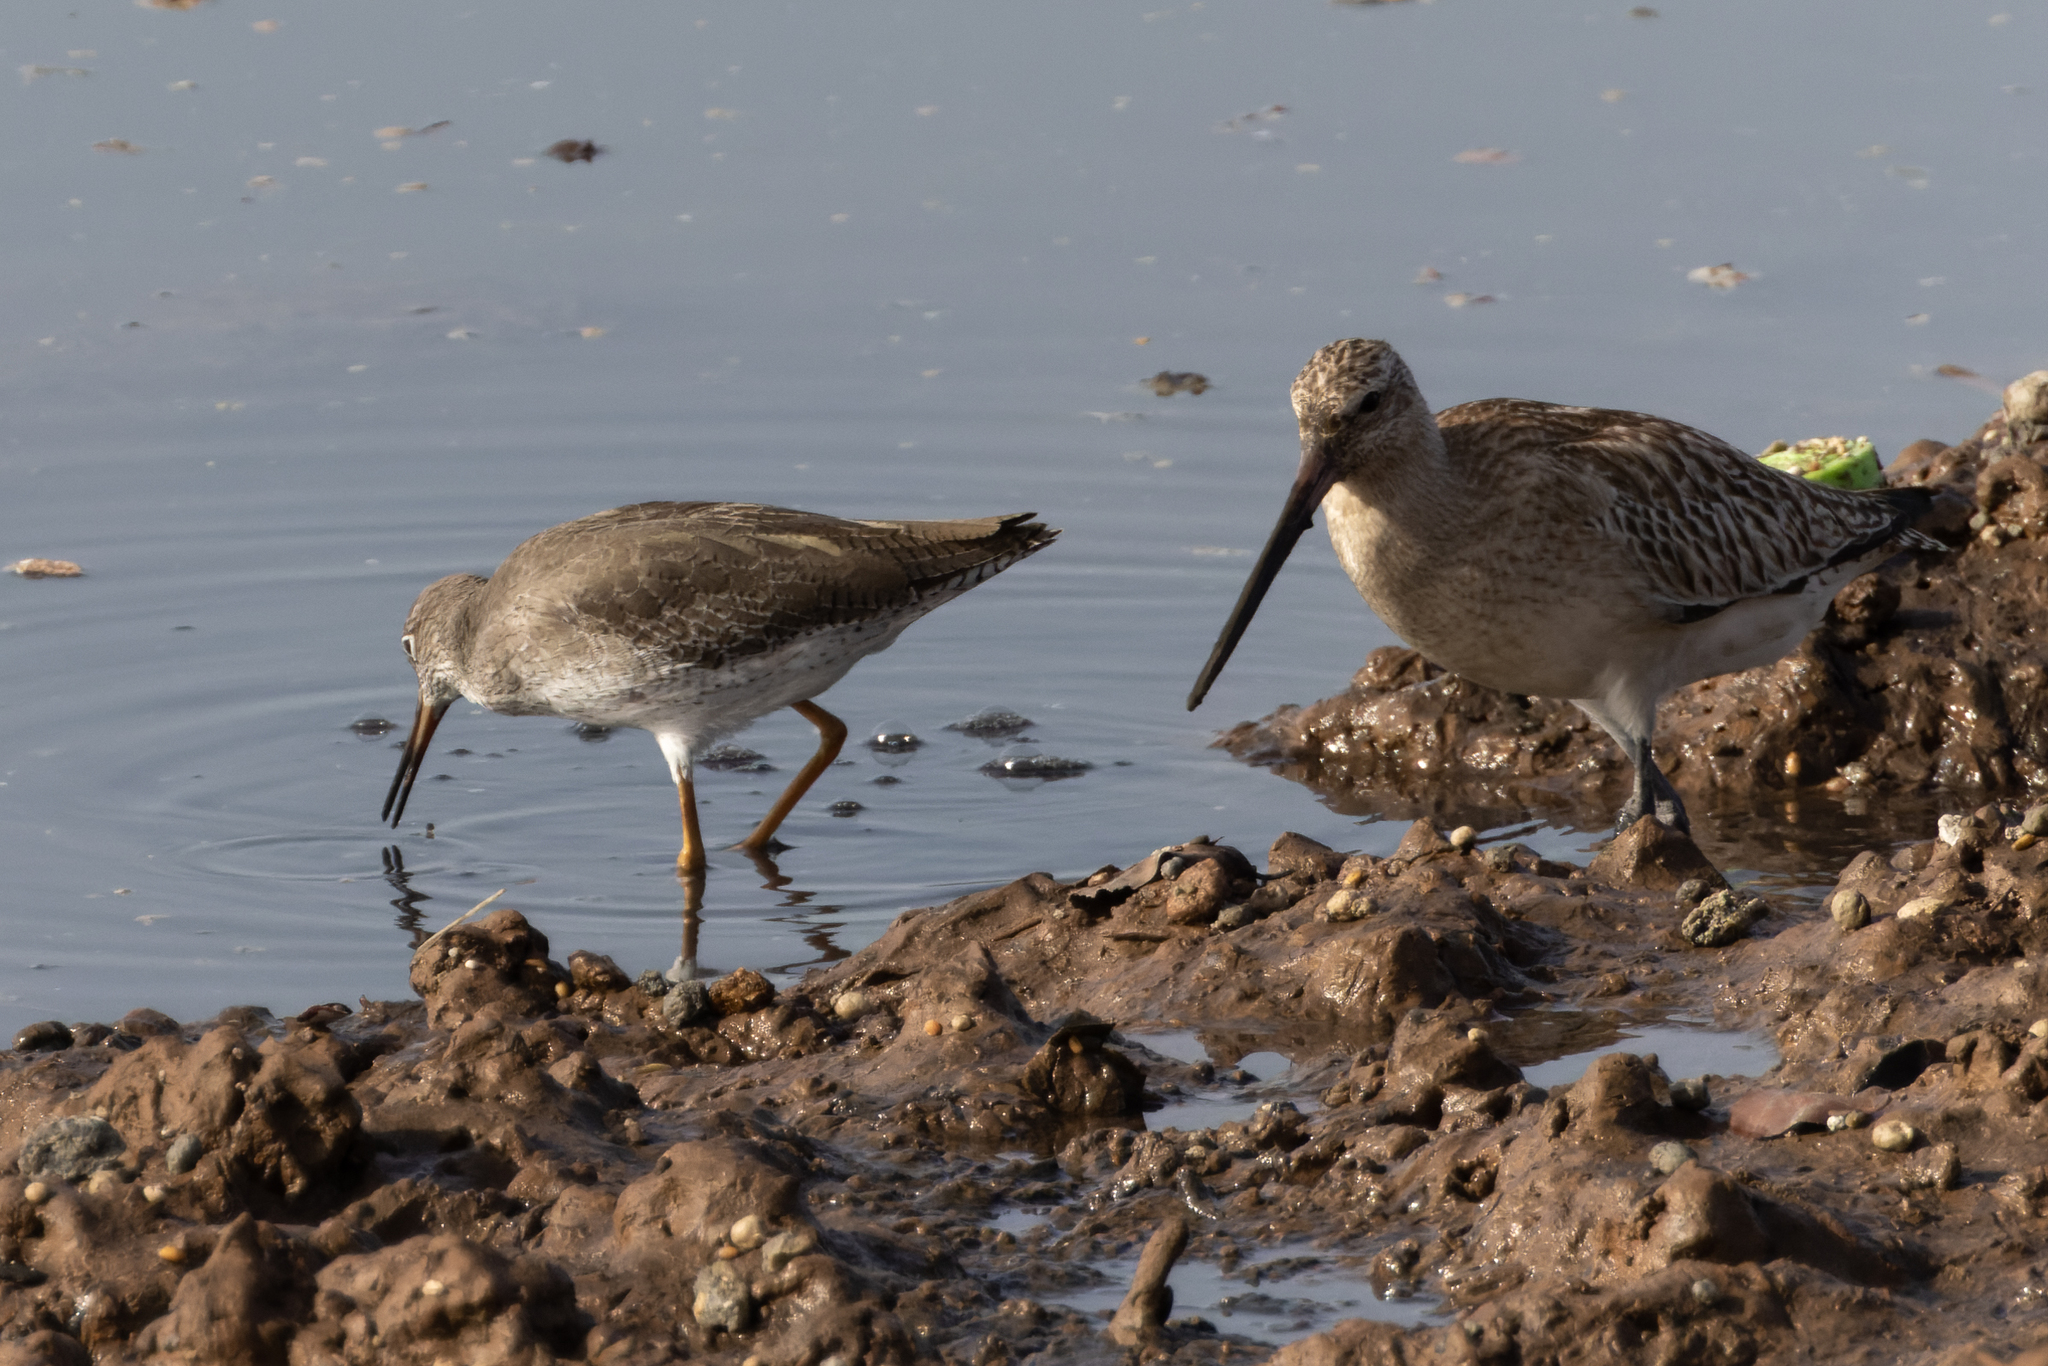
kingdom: Animalia
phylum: Chordata
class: Aves
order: Charadriiformes
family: Scolopacidae
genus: Tringa
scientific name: Tringa totanus
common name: Common redshank
